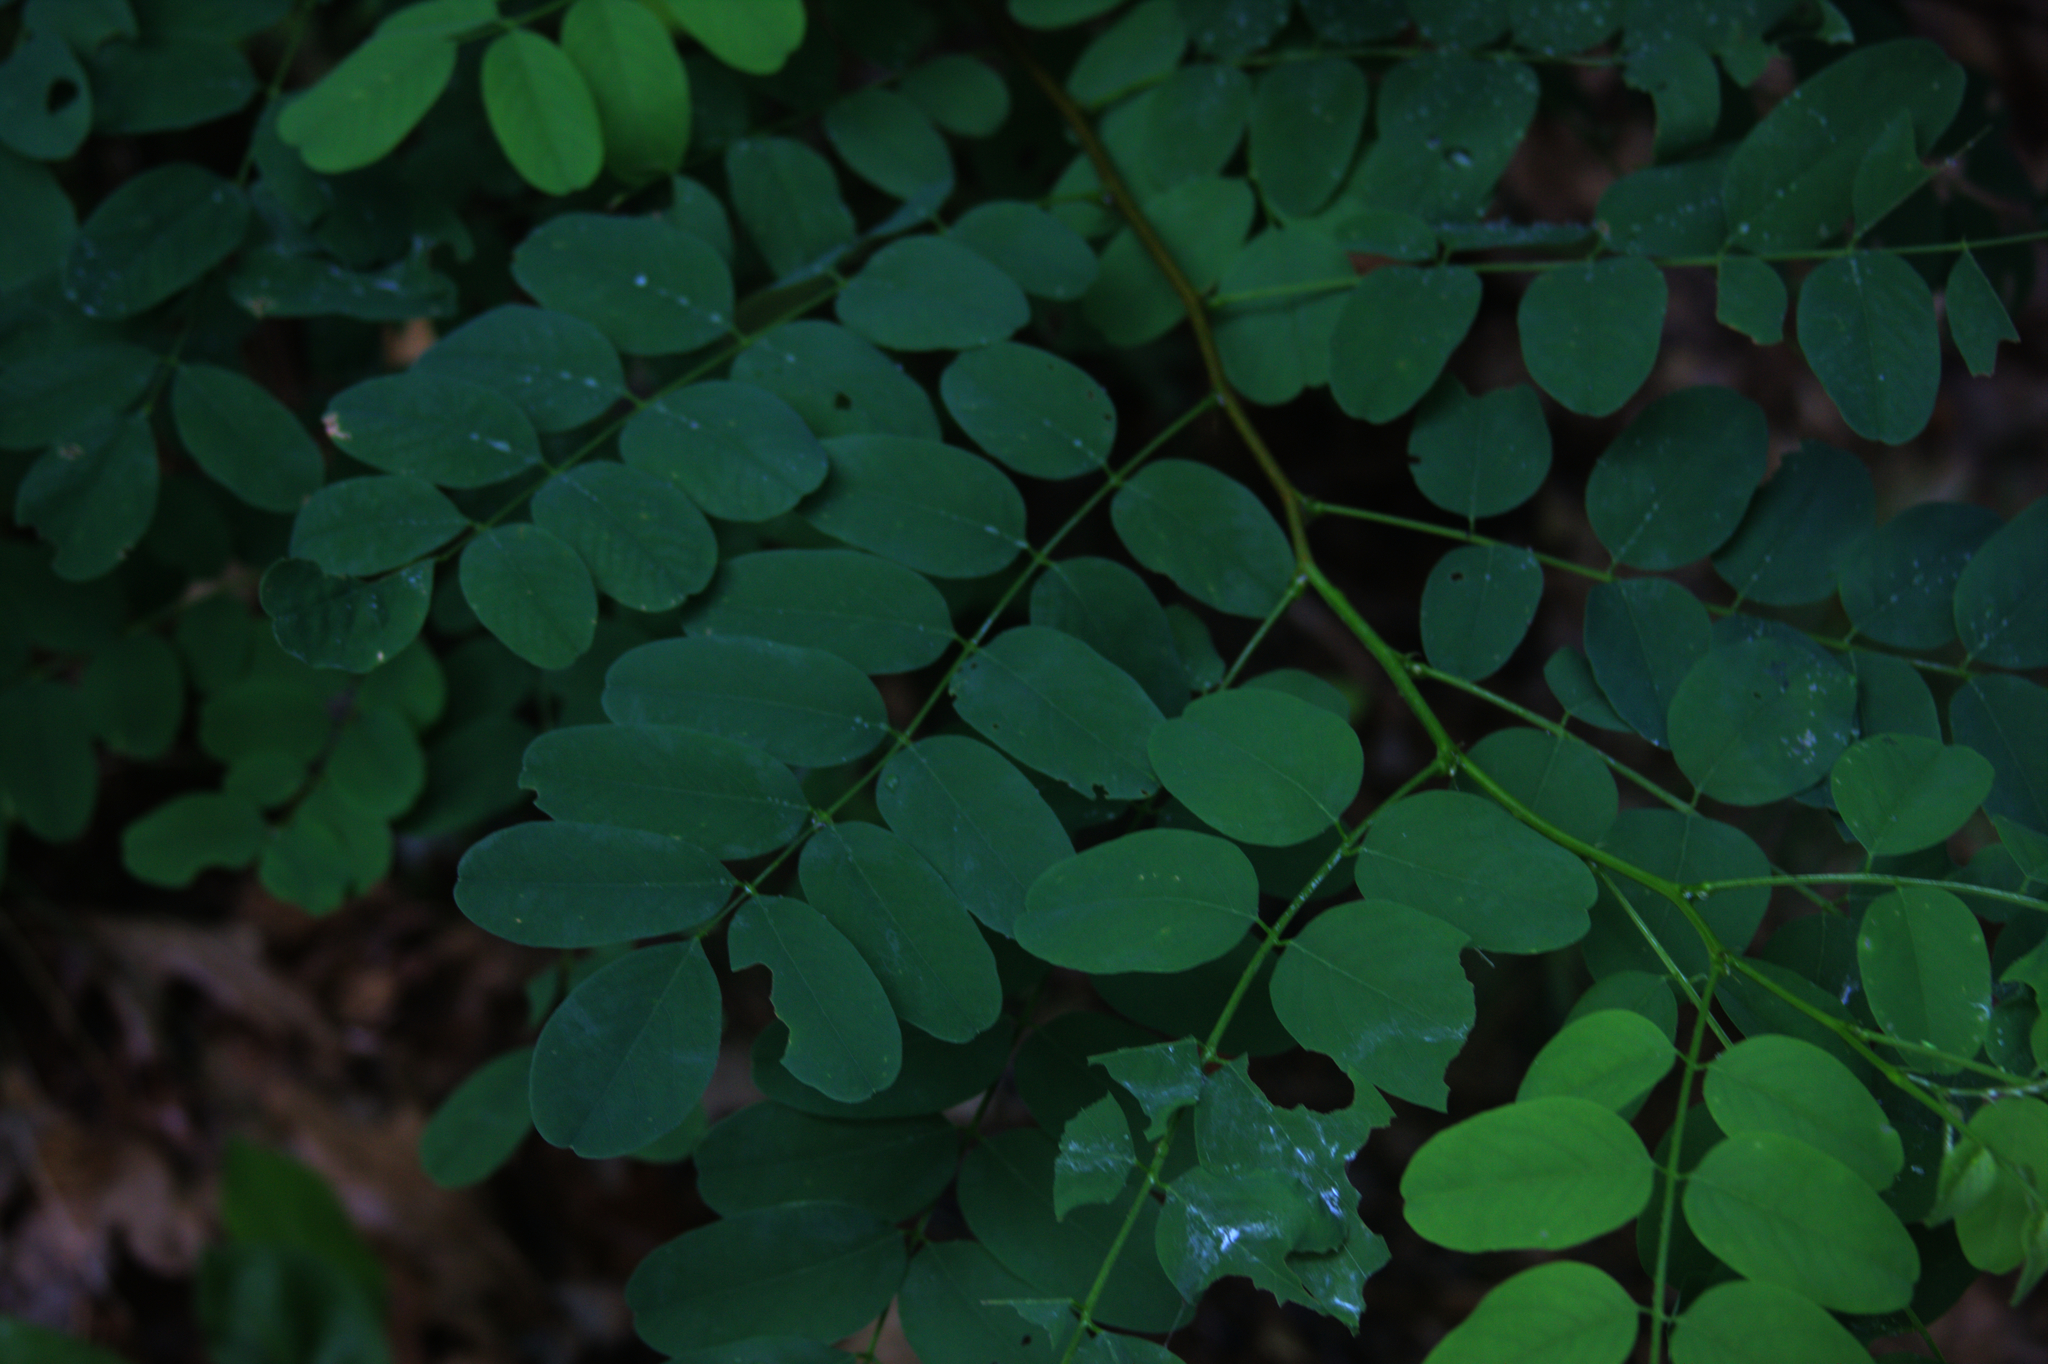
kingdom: Plantae
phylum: Tracheophyta
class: Magnoliopsida
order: Fabales
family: Fabaceae
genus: Robinia
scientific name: Robinia pseudoacacia
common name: Black locust
